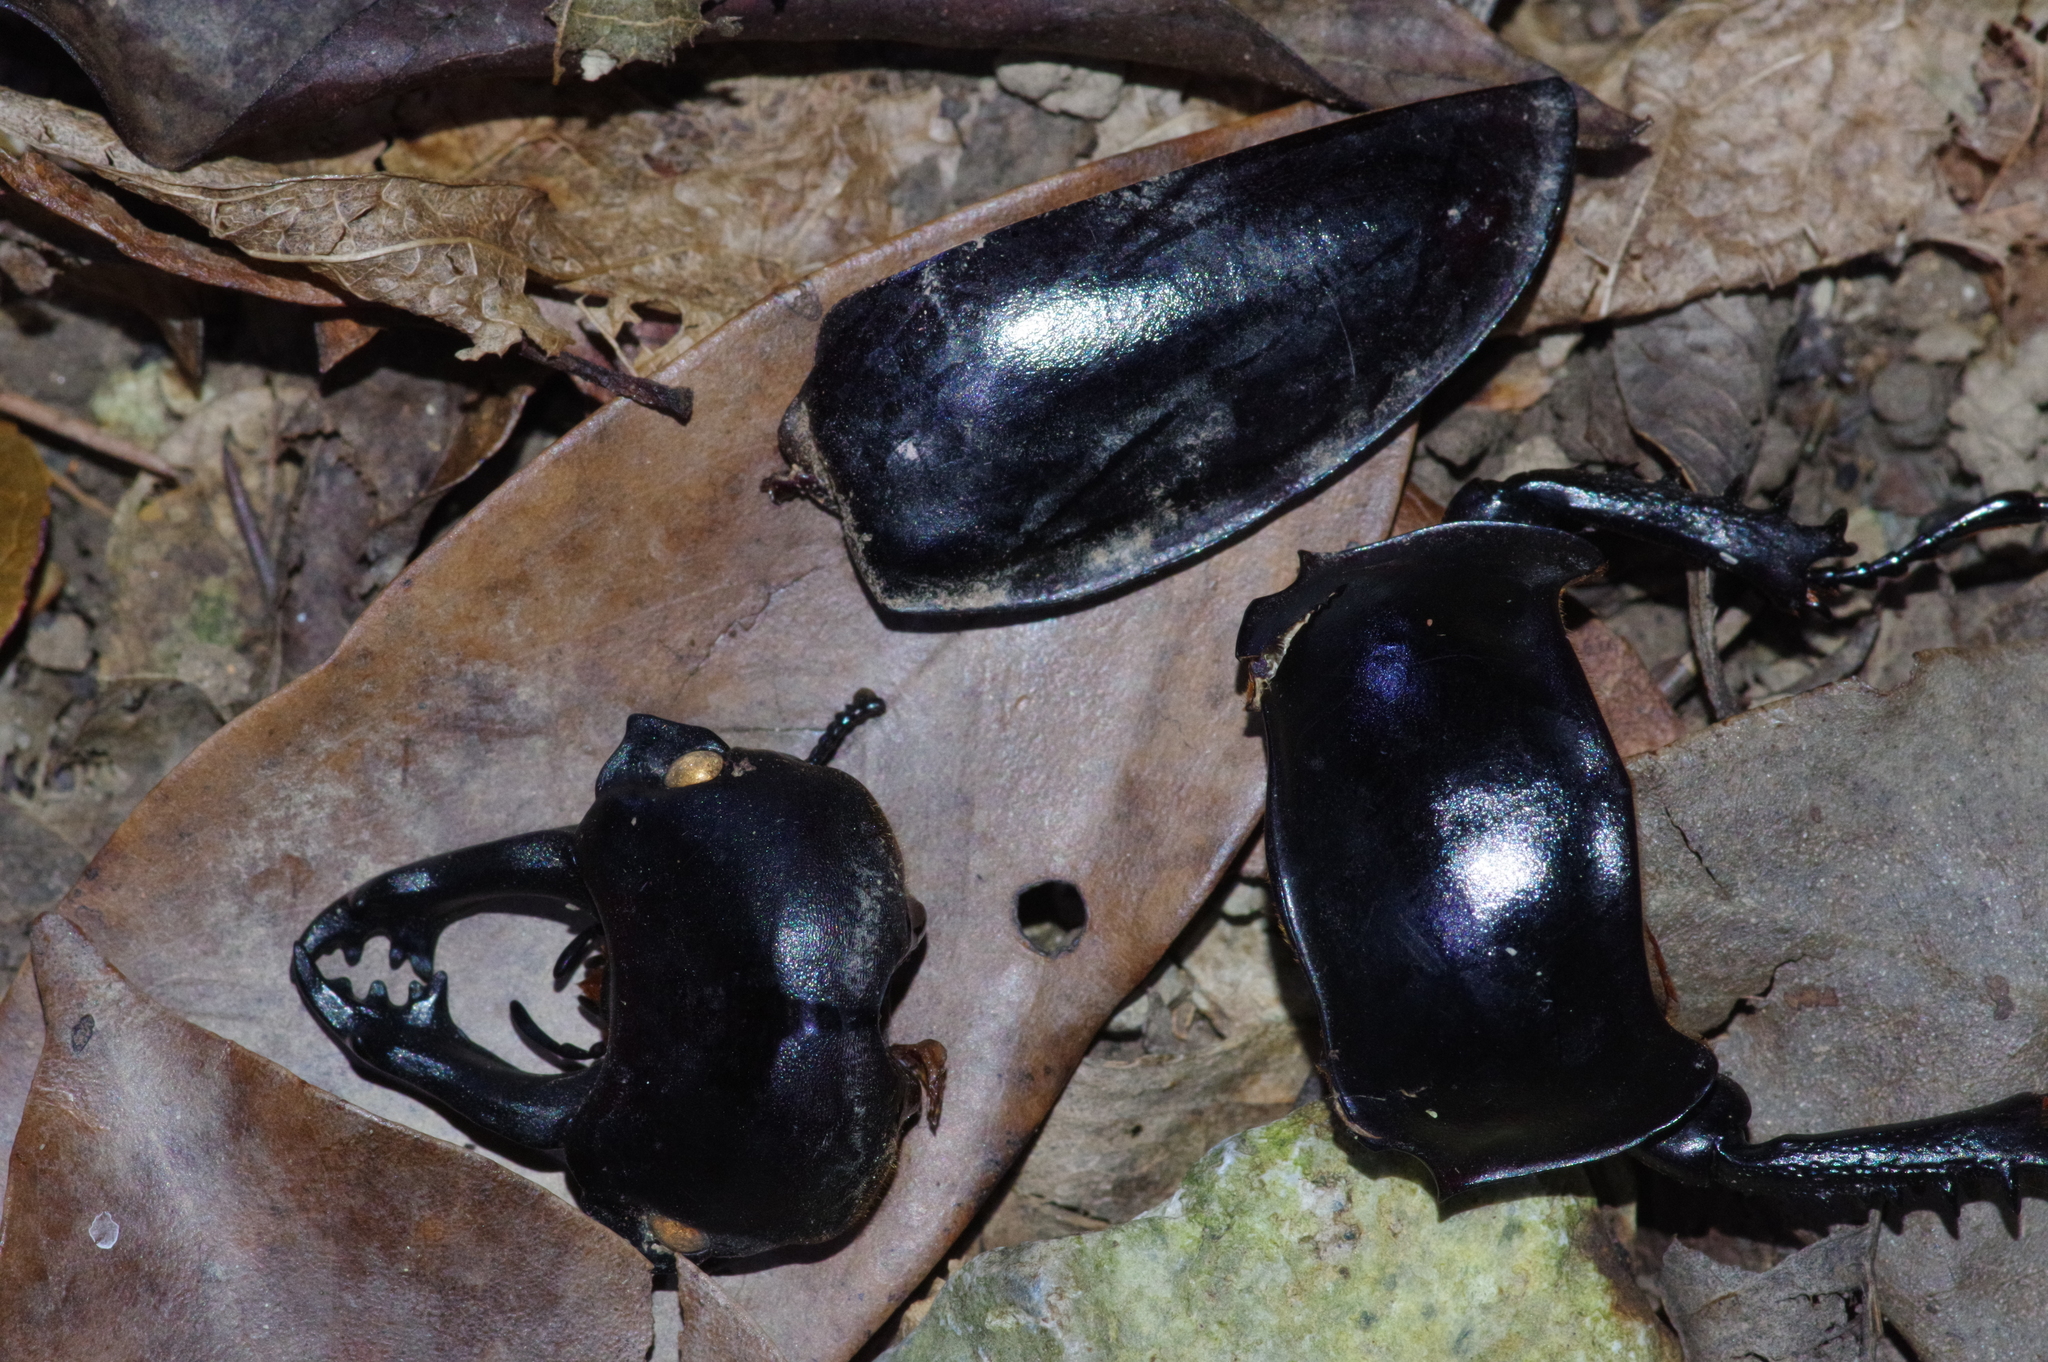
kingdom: Animalia
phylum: Arthropoda
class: Insecta
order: Coleoptera
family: Lucanidae
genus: Neolucanus
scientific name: Neolucanus okinawanus
